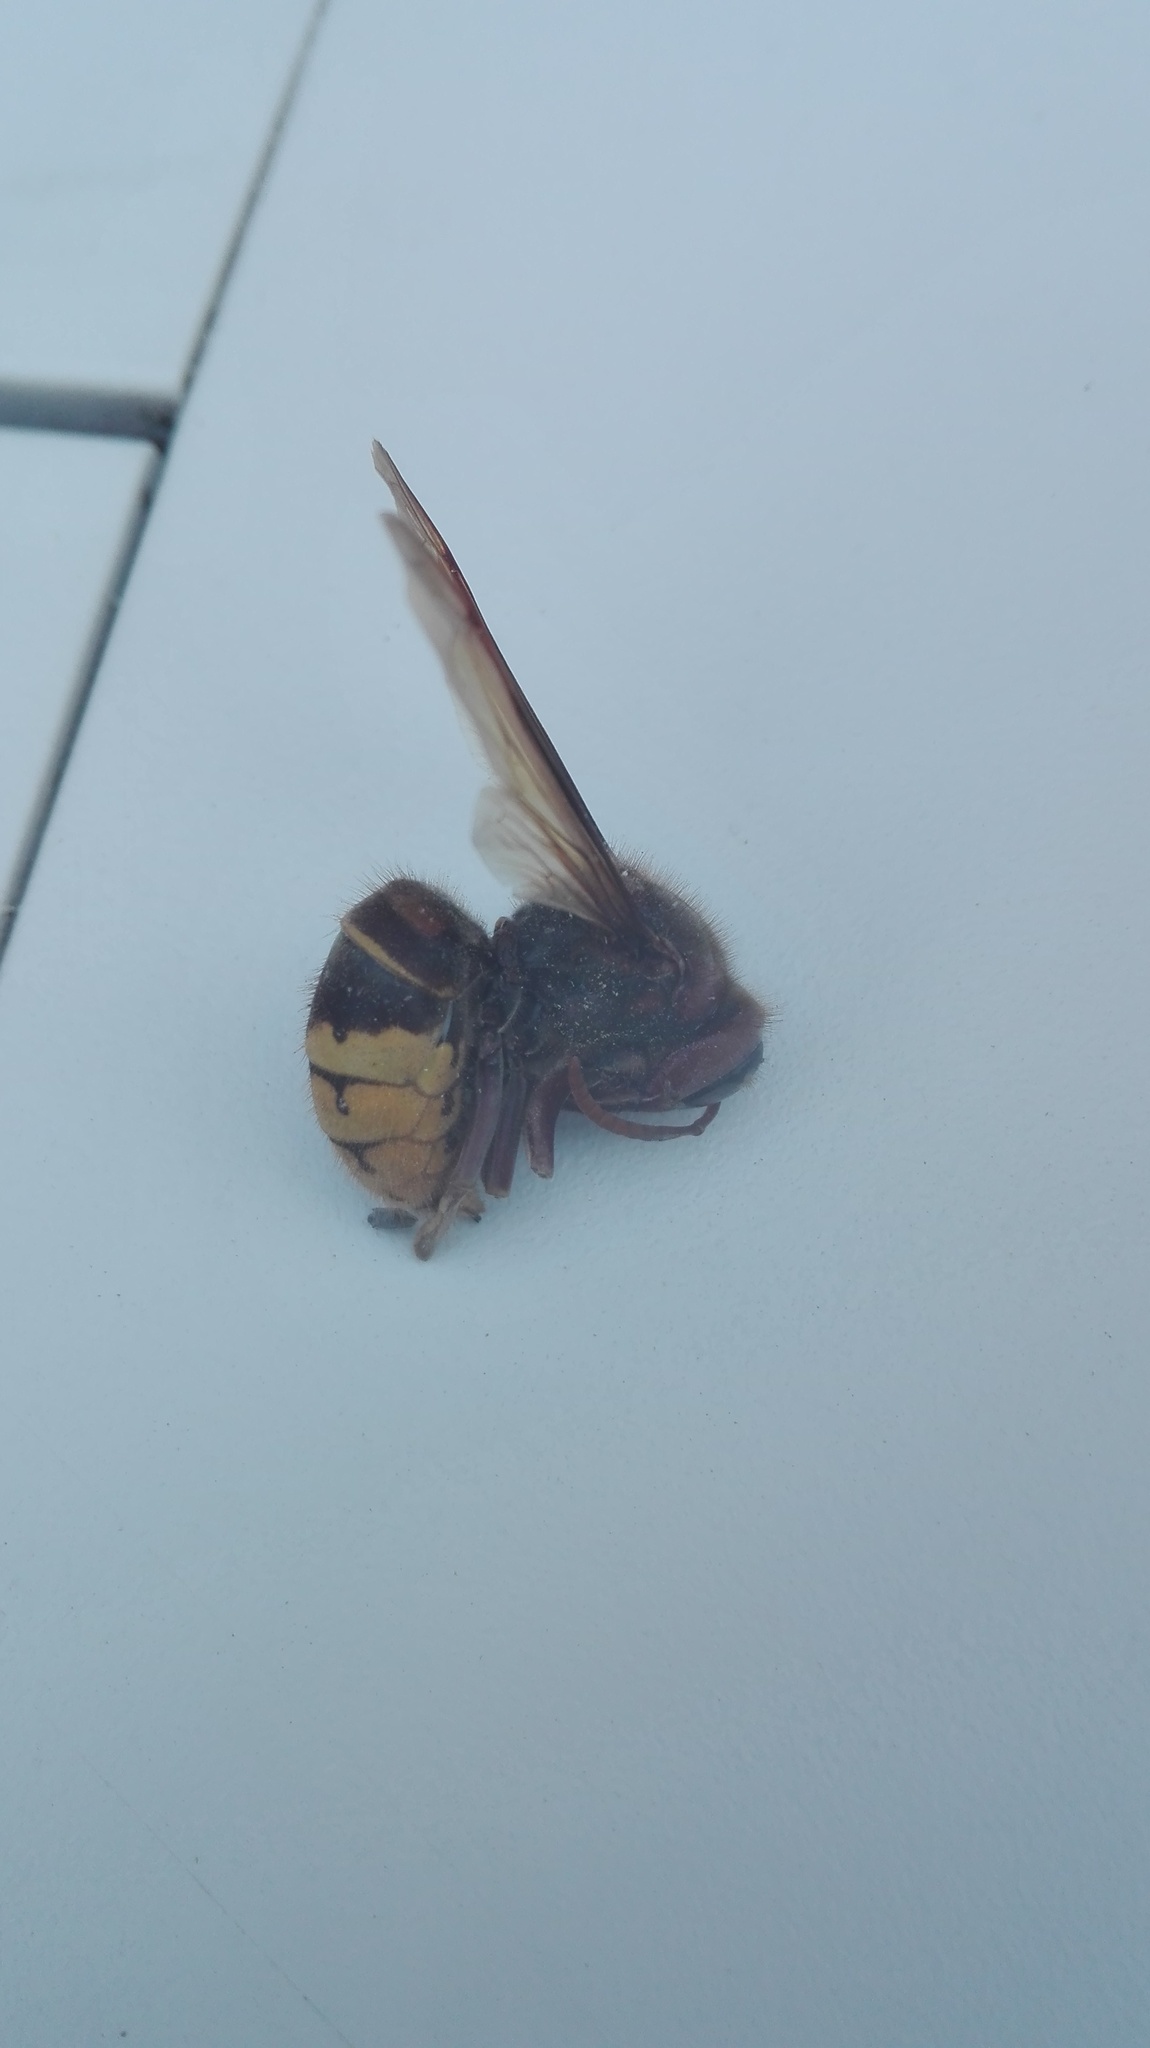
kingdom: Animalia
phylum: Arthropoda
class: Insecta
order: Hymenoptera
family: Vespidae
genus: Vespa
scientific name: Vespa crabro
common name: Hornet
